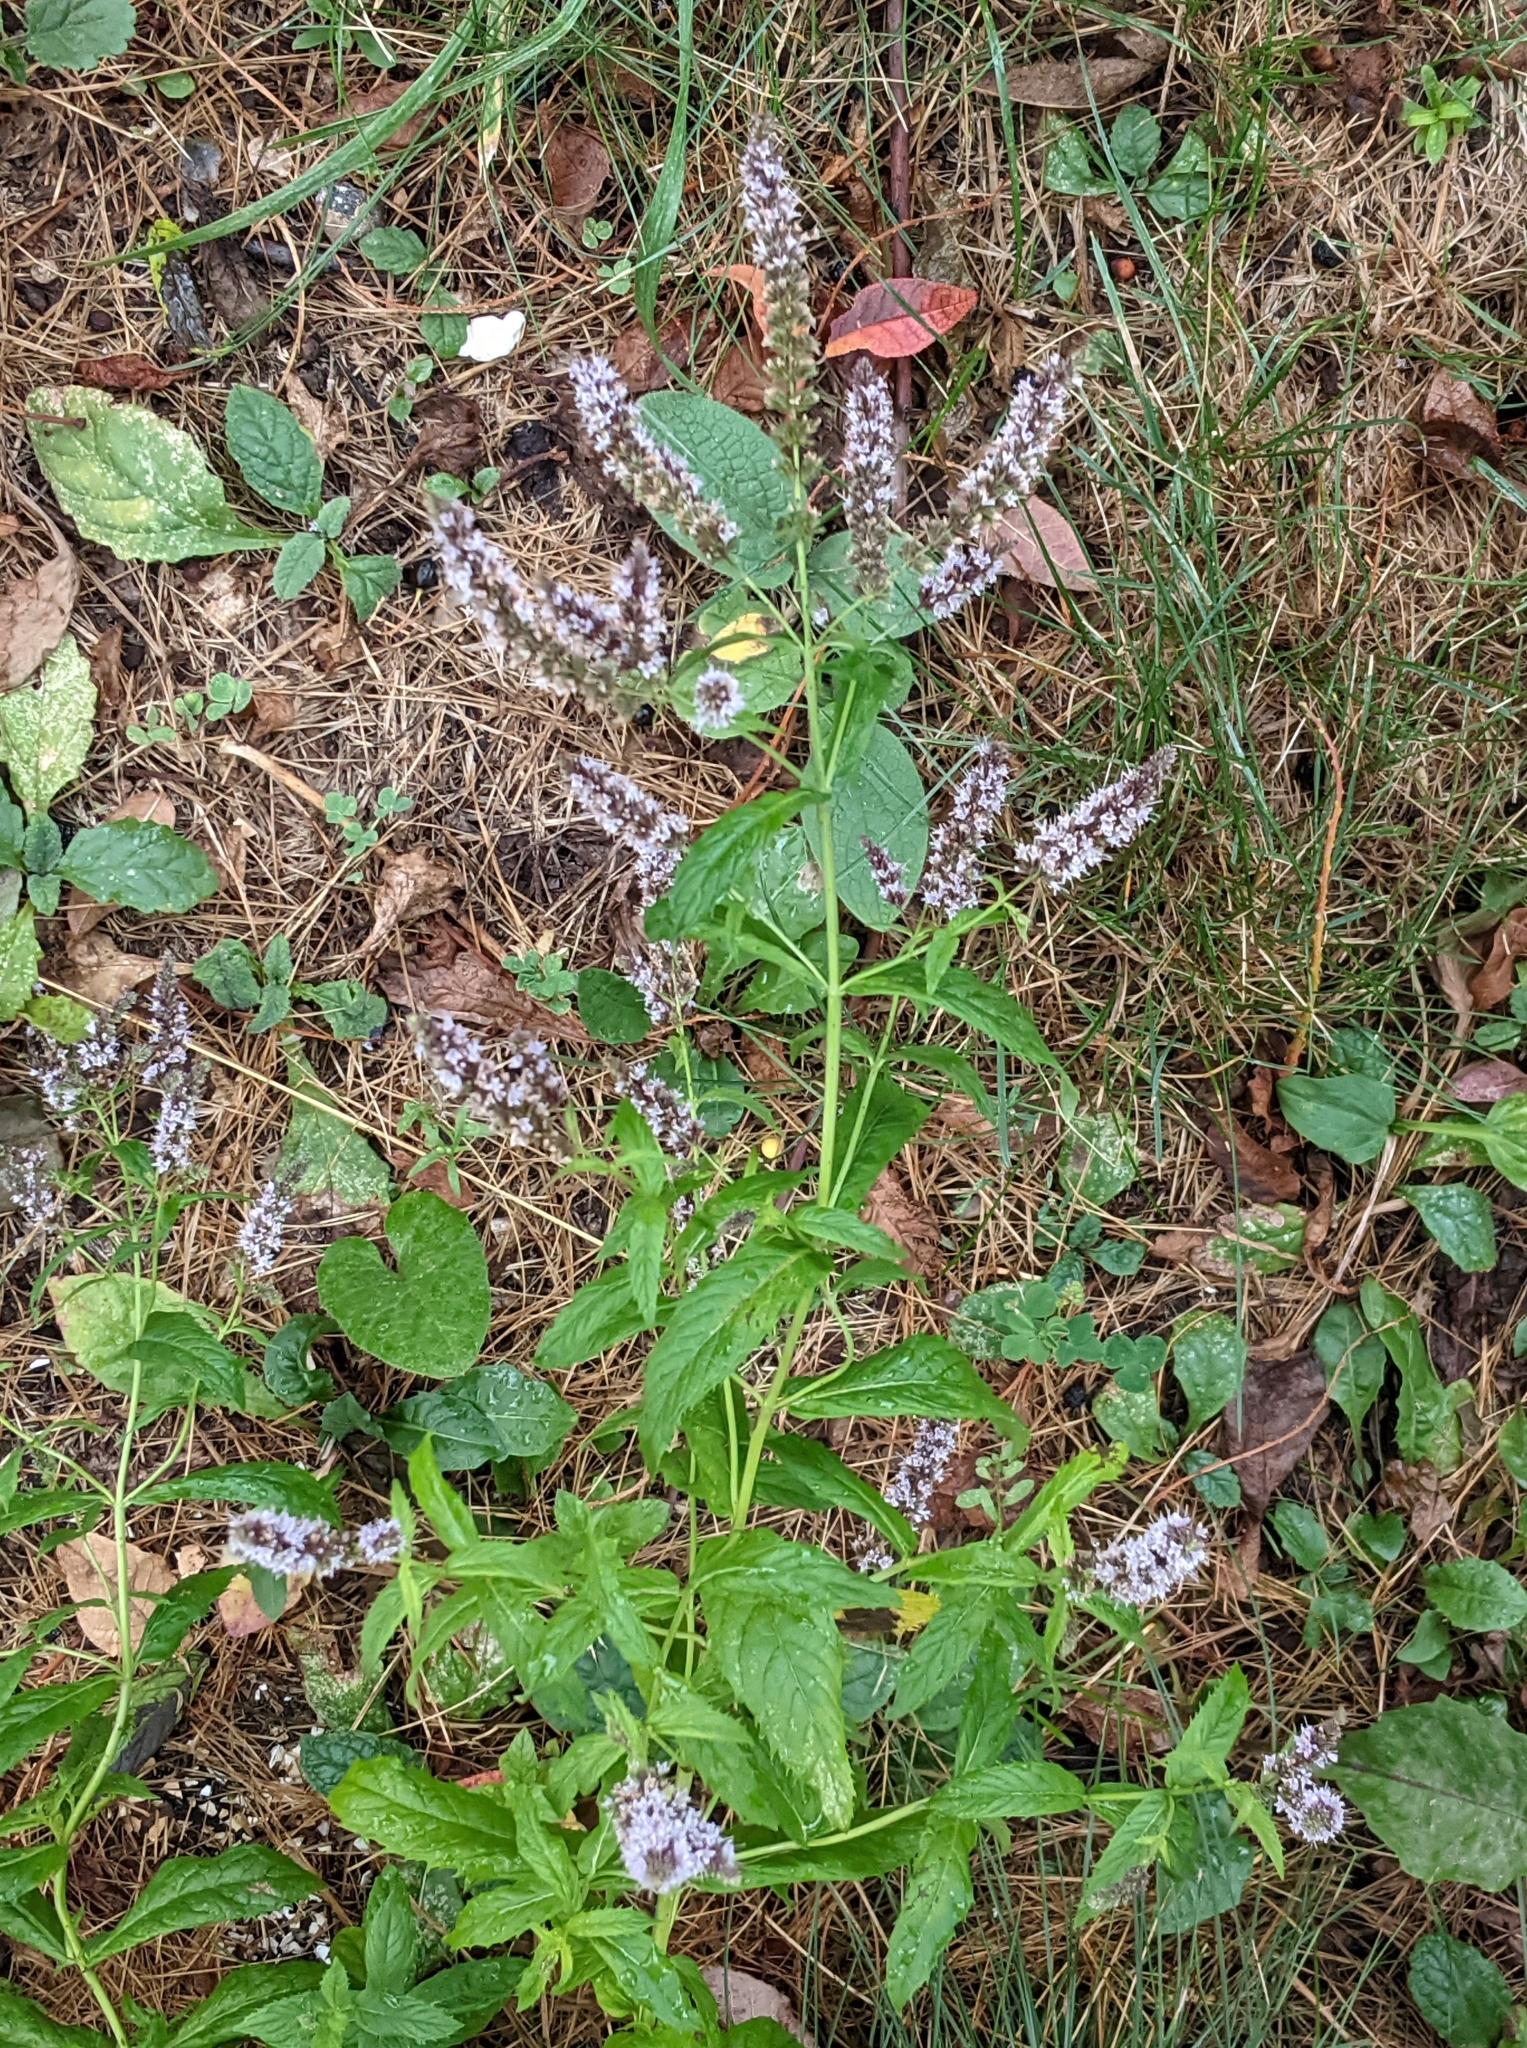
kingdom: Plantae
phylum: Tracheophyta
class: Magnoliopsida
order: Lamiales
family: Lamiaceae
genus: Mentha
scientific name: Mentha spicata
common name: Spearmint
